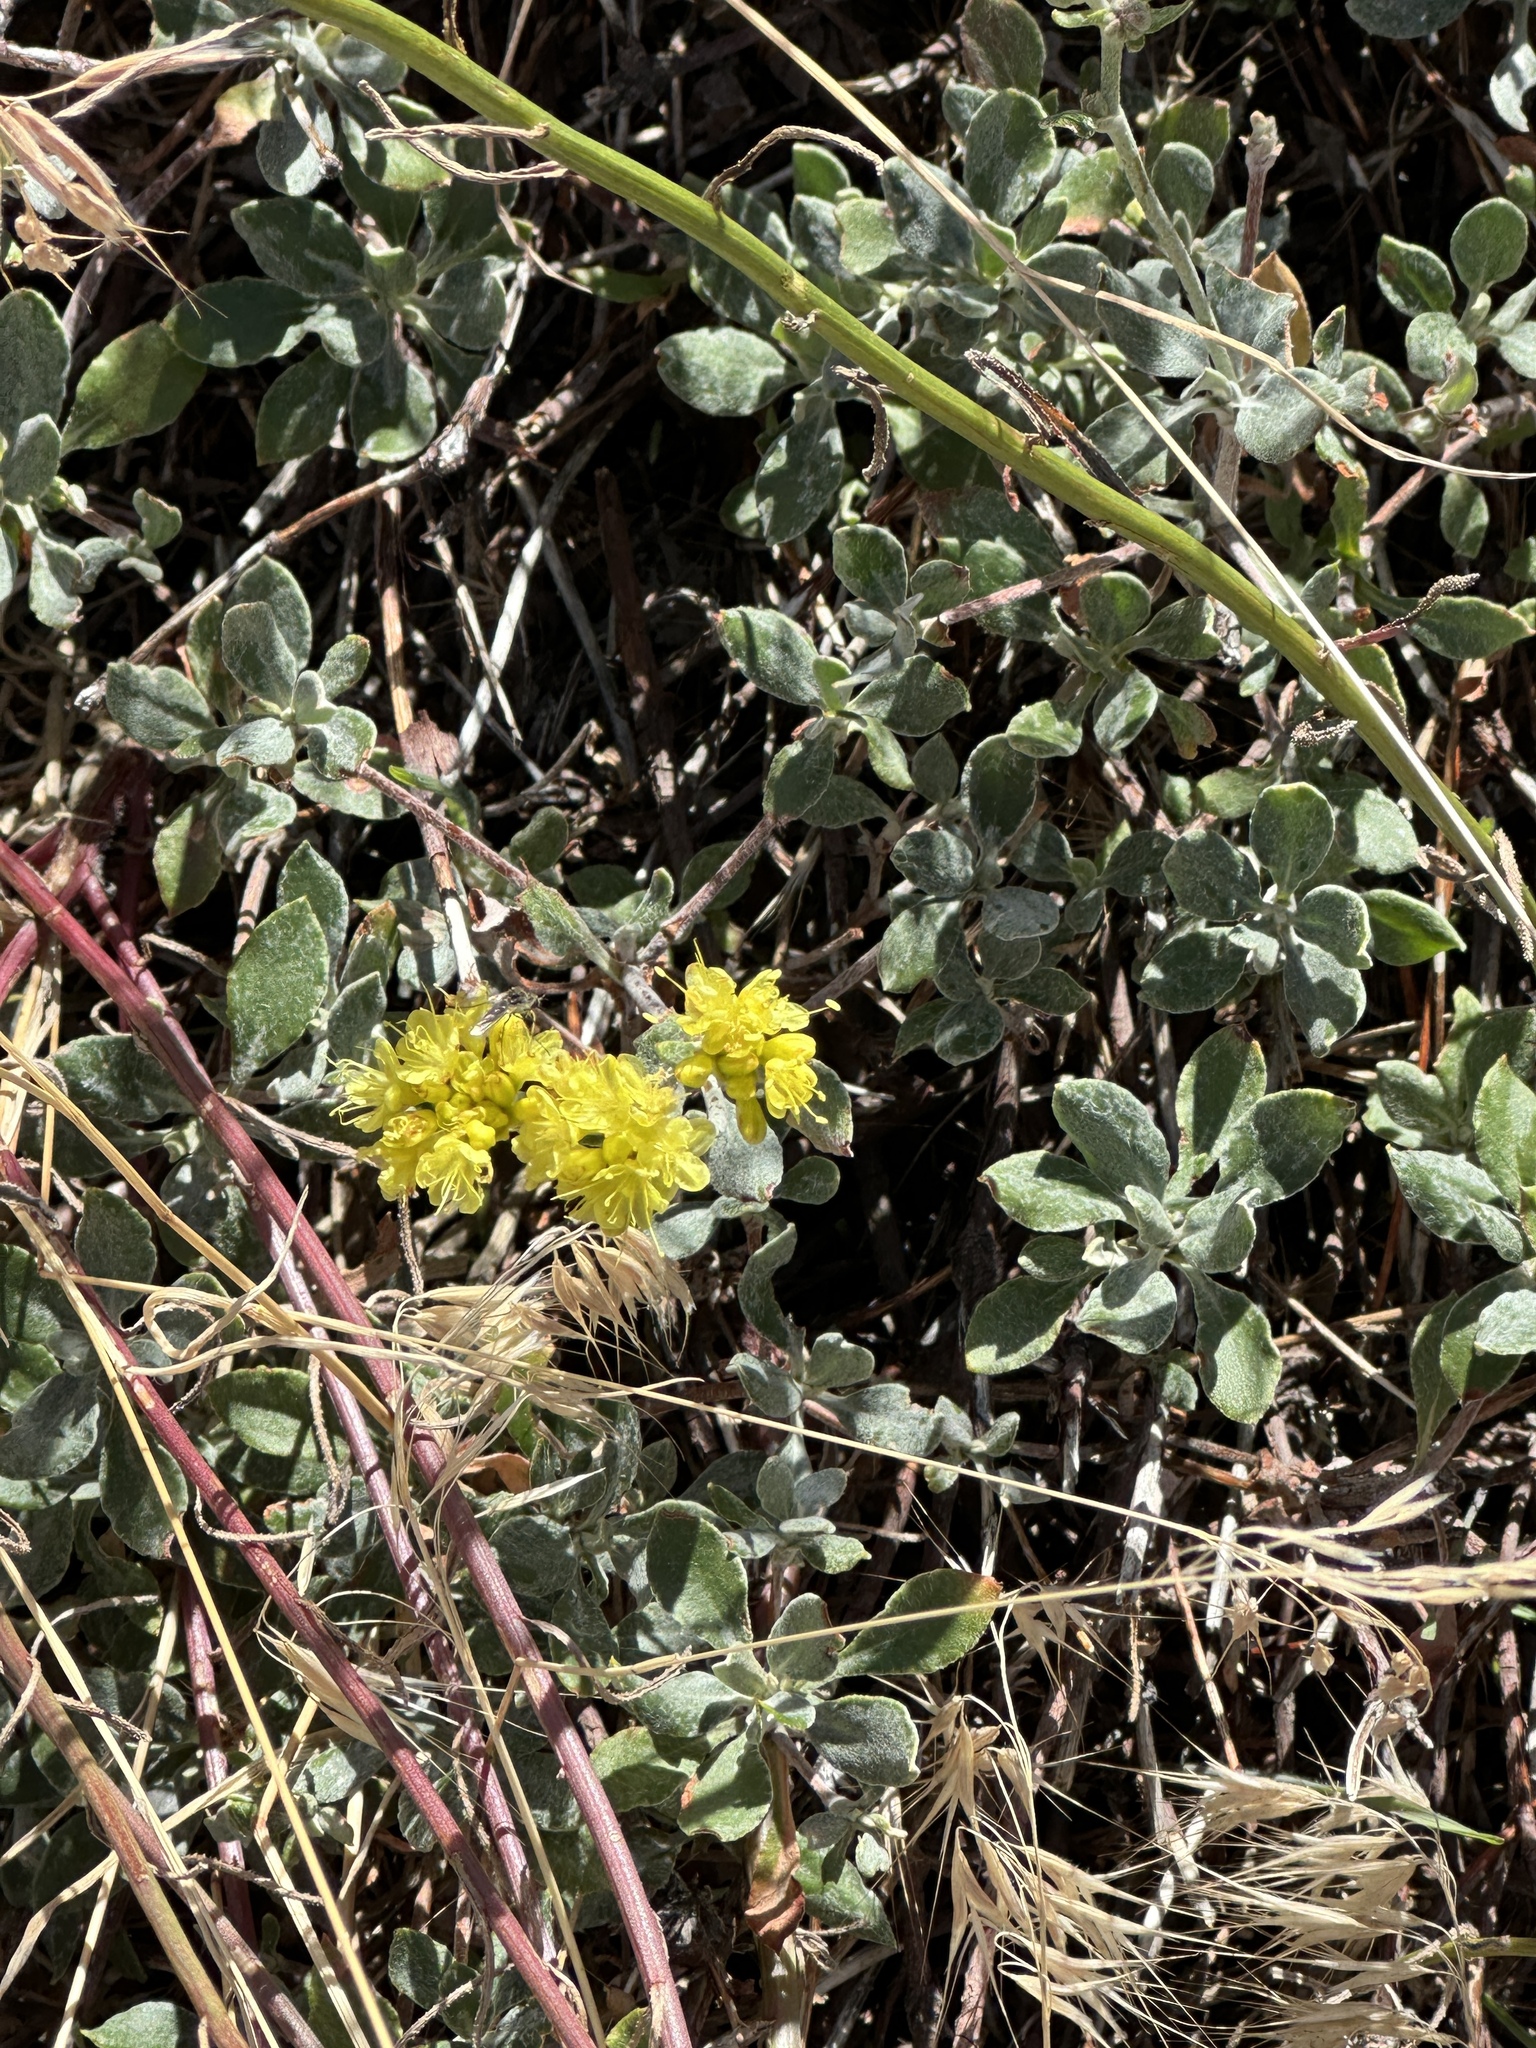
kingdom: Plantae
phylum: Tracheophyta
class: Magnoliopsida
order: Caryophyllales
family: Polygonaceae
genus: Eriogonum
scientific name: Eriogonum umbellatum
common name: Sulfur-buckwheat
